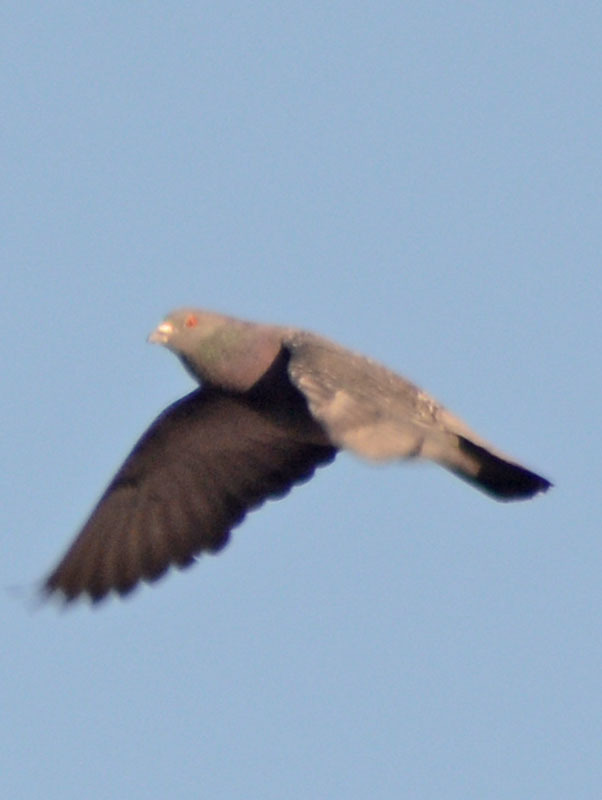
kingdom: Animalia
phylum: Chordata
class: Aves
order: Columbiformes
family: Columbidae
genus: Columba
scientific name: Columba livia
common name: Rock pigeon
